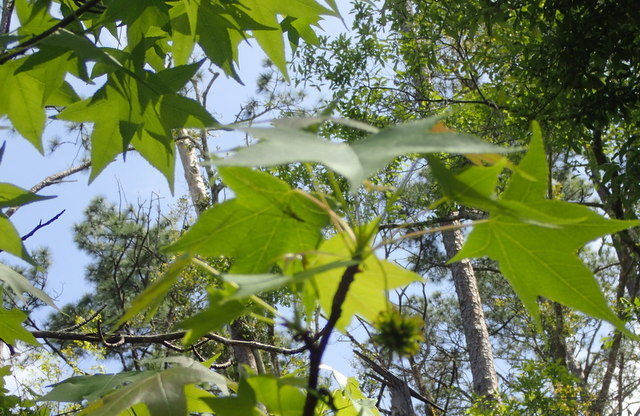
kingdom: Plantae
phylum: Tracheophyta
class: Magnoliopsida
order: Saxifragales
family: Altingiaceae
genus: Liquidambar
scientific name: Liquidambar styraciflua
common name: Sweet gum
